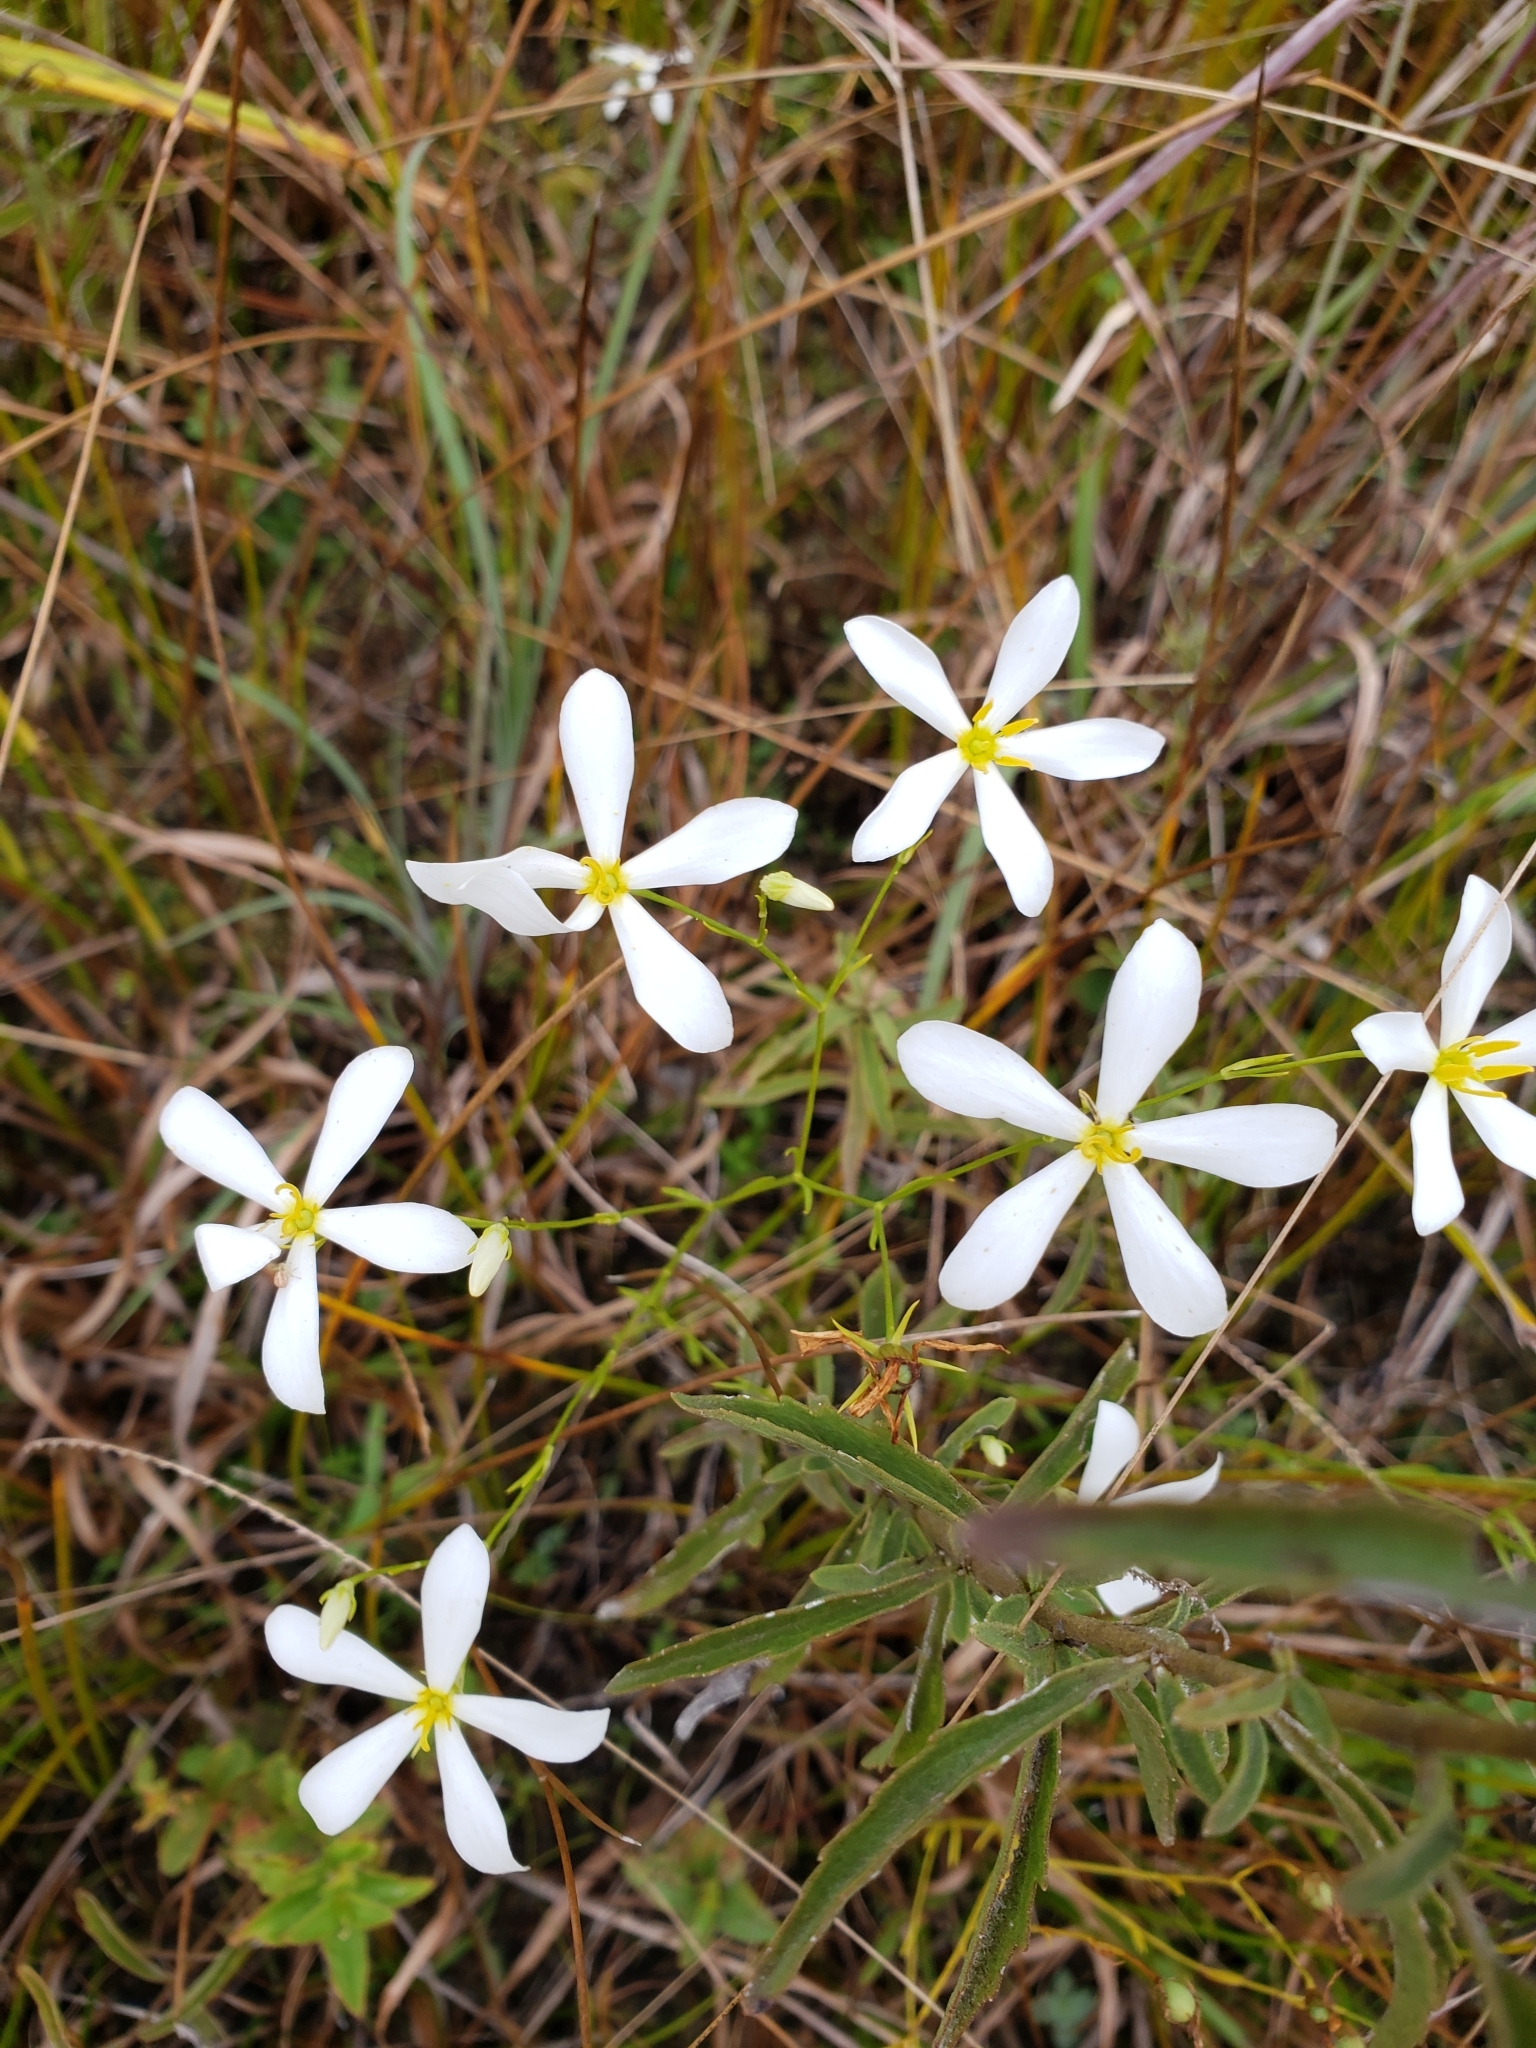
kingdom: Plantae
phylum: Tracheophyta
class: Magnoliopsida
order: Gentianales
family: Gentianaceae
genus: Sabatia
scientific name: Sabatia brevifolia
